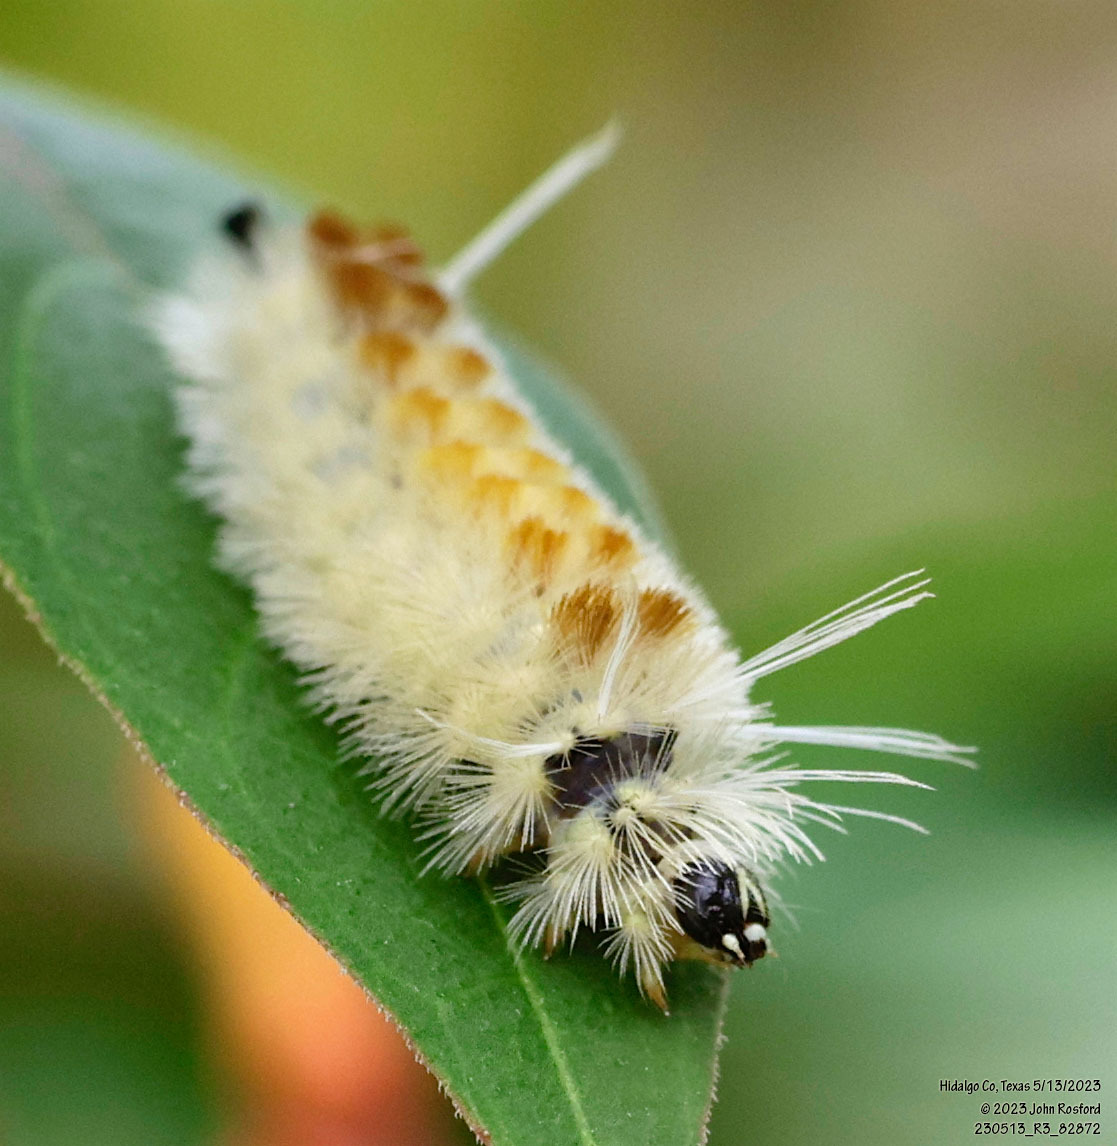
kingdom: Animalia
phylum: Arthropoda
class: Insecta
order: Lepidoptera
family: Erebidae
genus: Lophocampa
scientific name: Lophocampa annulosa
